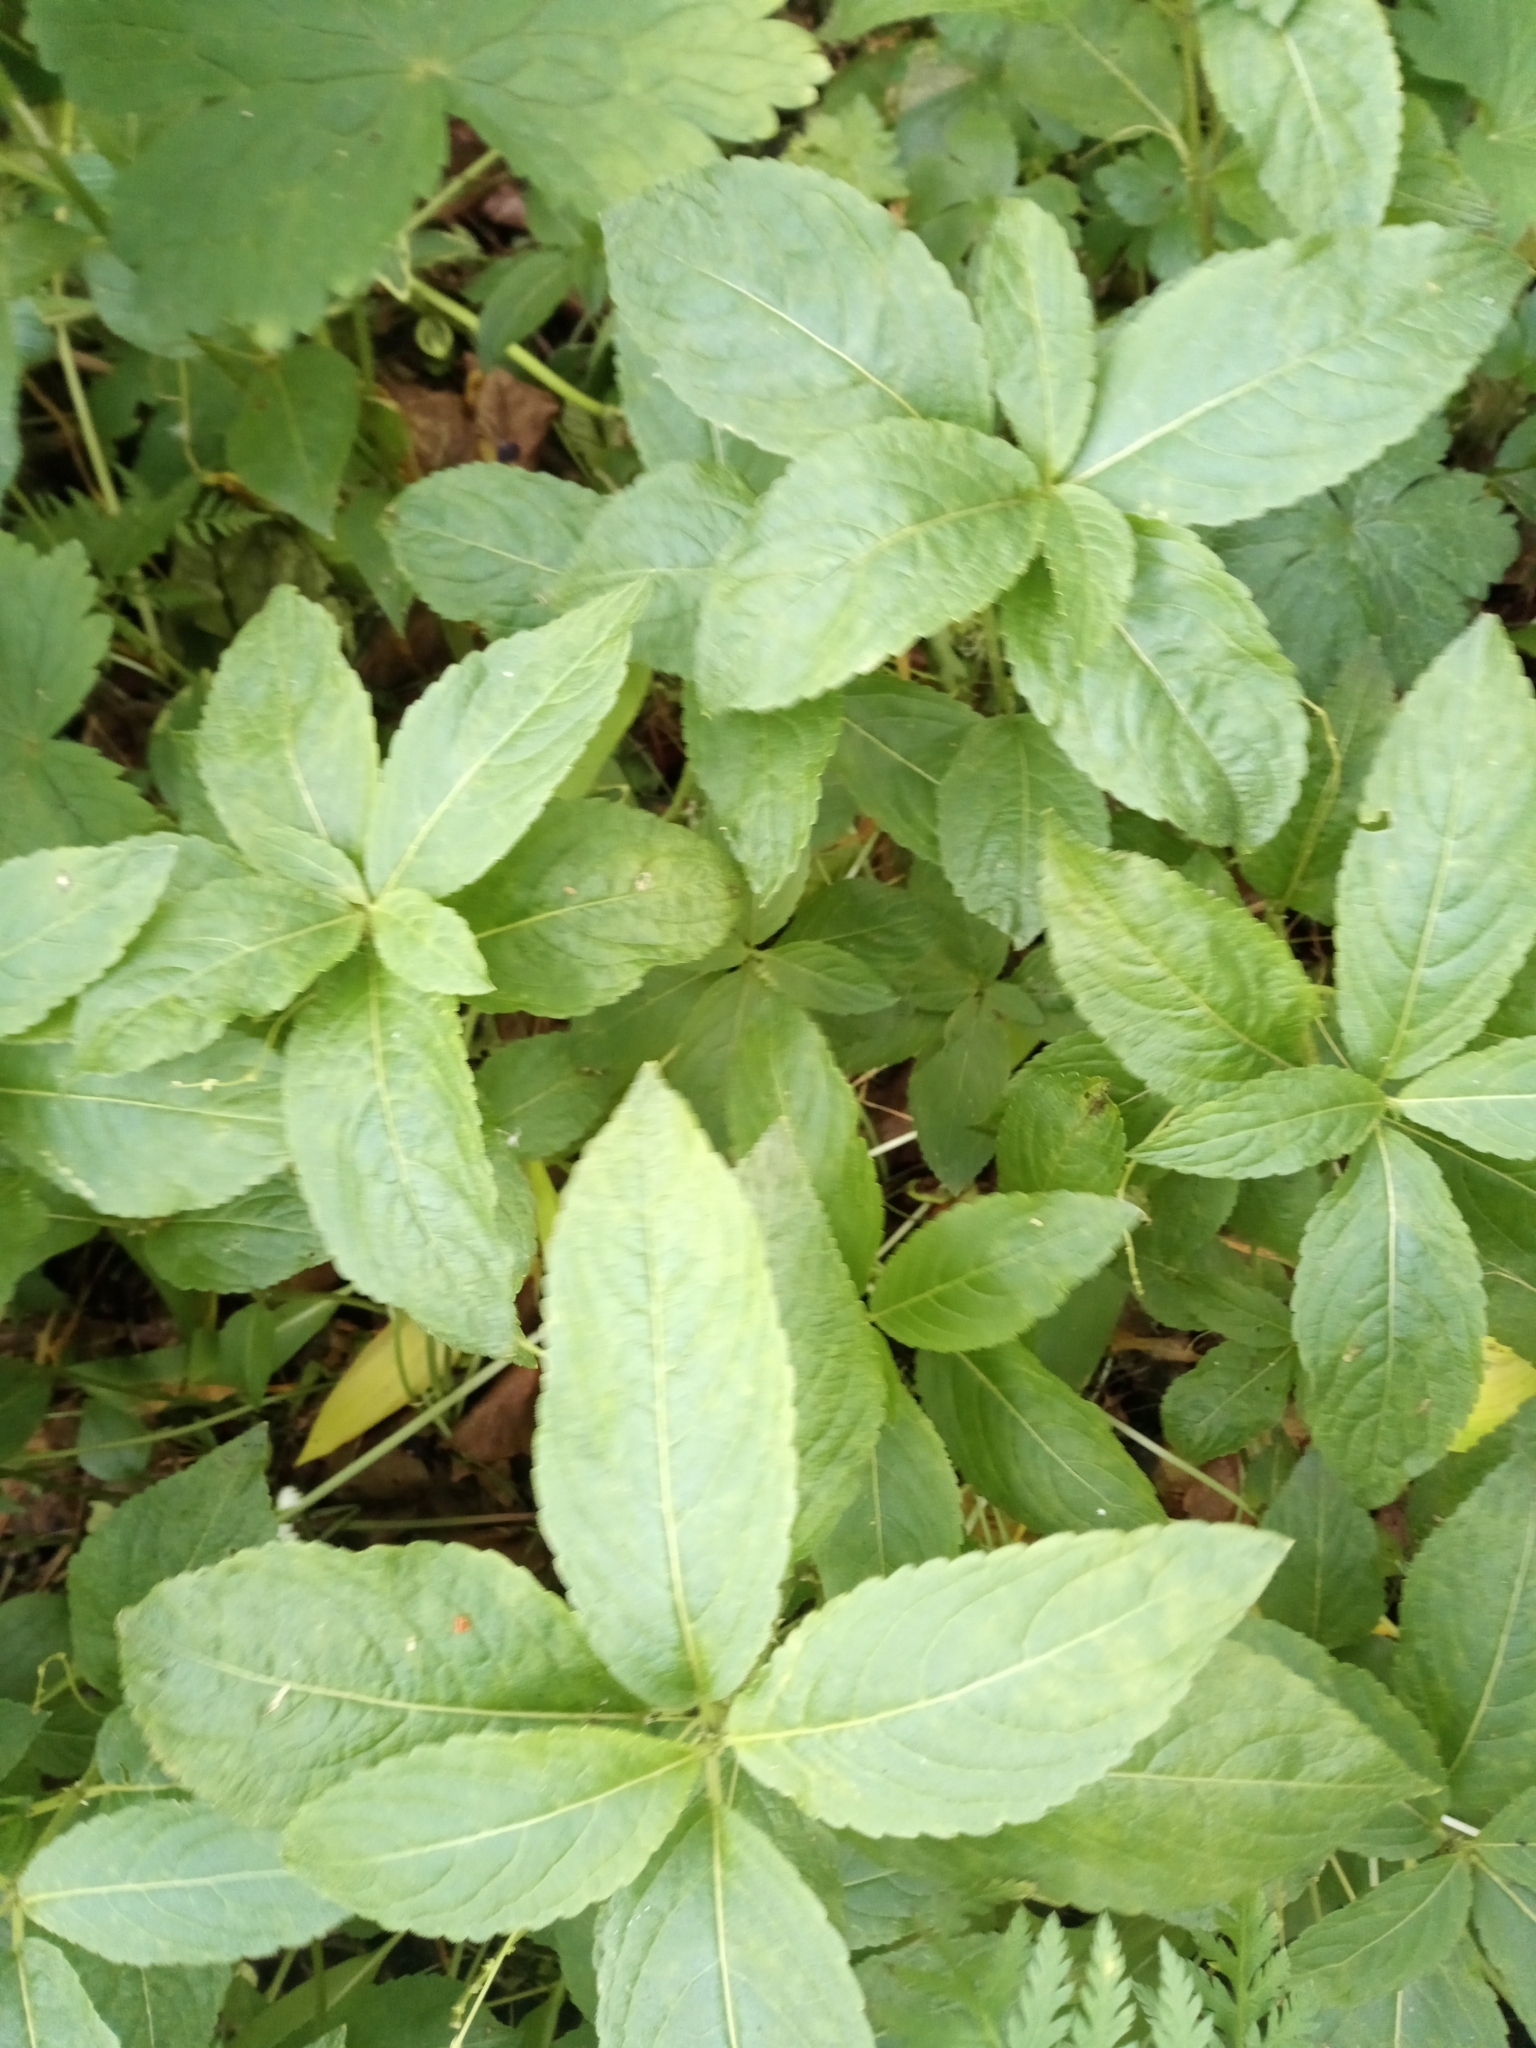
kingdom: Plantae
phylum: Tracheophyta
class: Magnoliopsida
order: Malpighiales
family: Euphorbiaceae
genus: Mercurialis
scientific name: Mercurialis perennis
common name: Dog mercury
